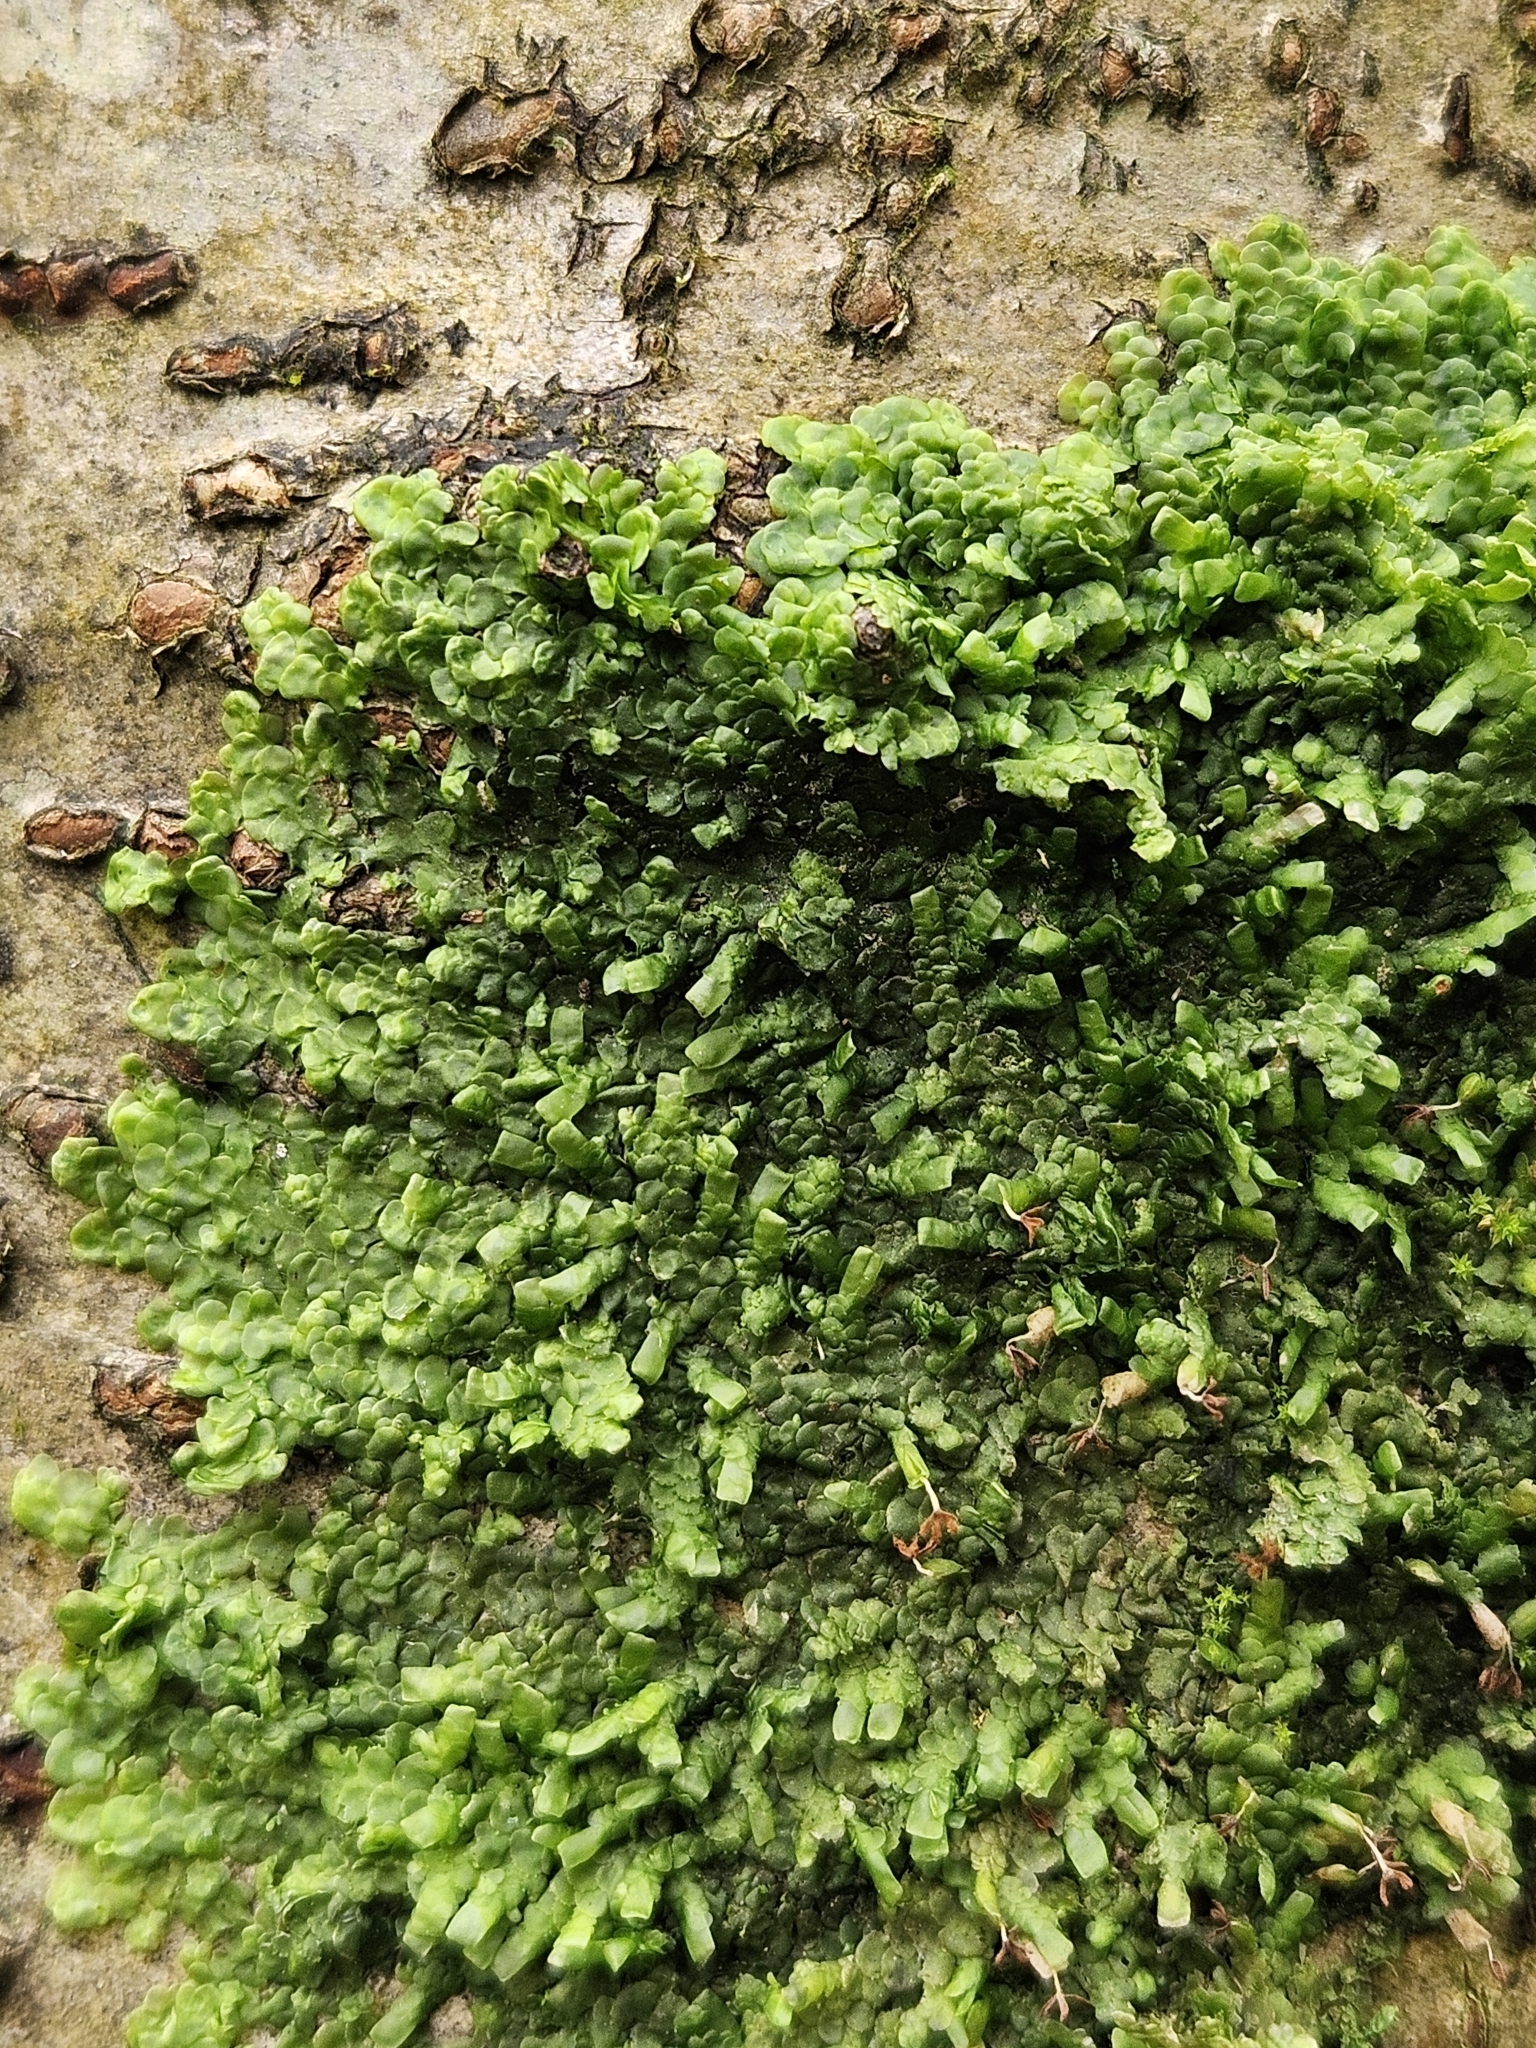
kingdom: Plantae
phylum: Marchantiophyta
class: Jungermanniopsida
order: Porellales
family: Radulaceae
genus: Radula
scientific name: Radula complanata
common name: Flat-leaved scalewort
